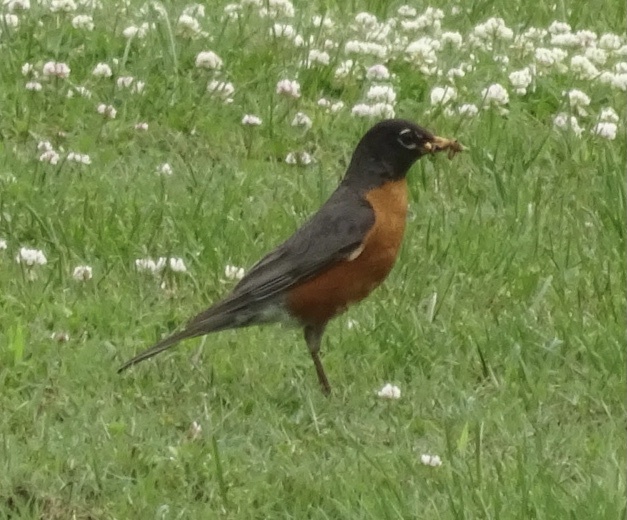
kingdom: Animalia
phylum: Chordata
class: Aves
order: Passeriformes
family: Turdidae
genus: Turdus
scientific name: Turdus migratorius
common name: American robin
